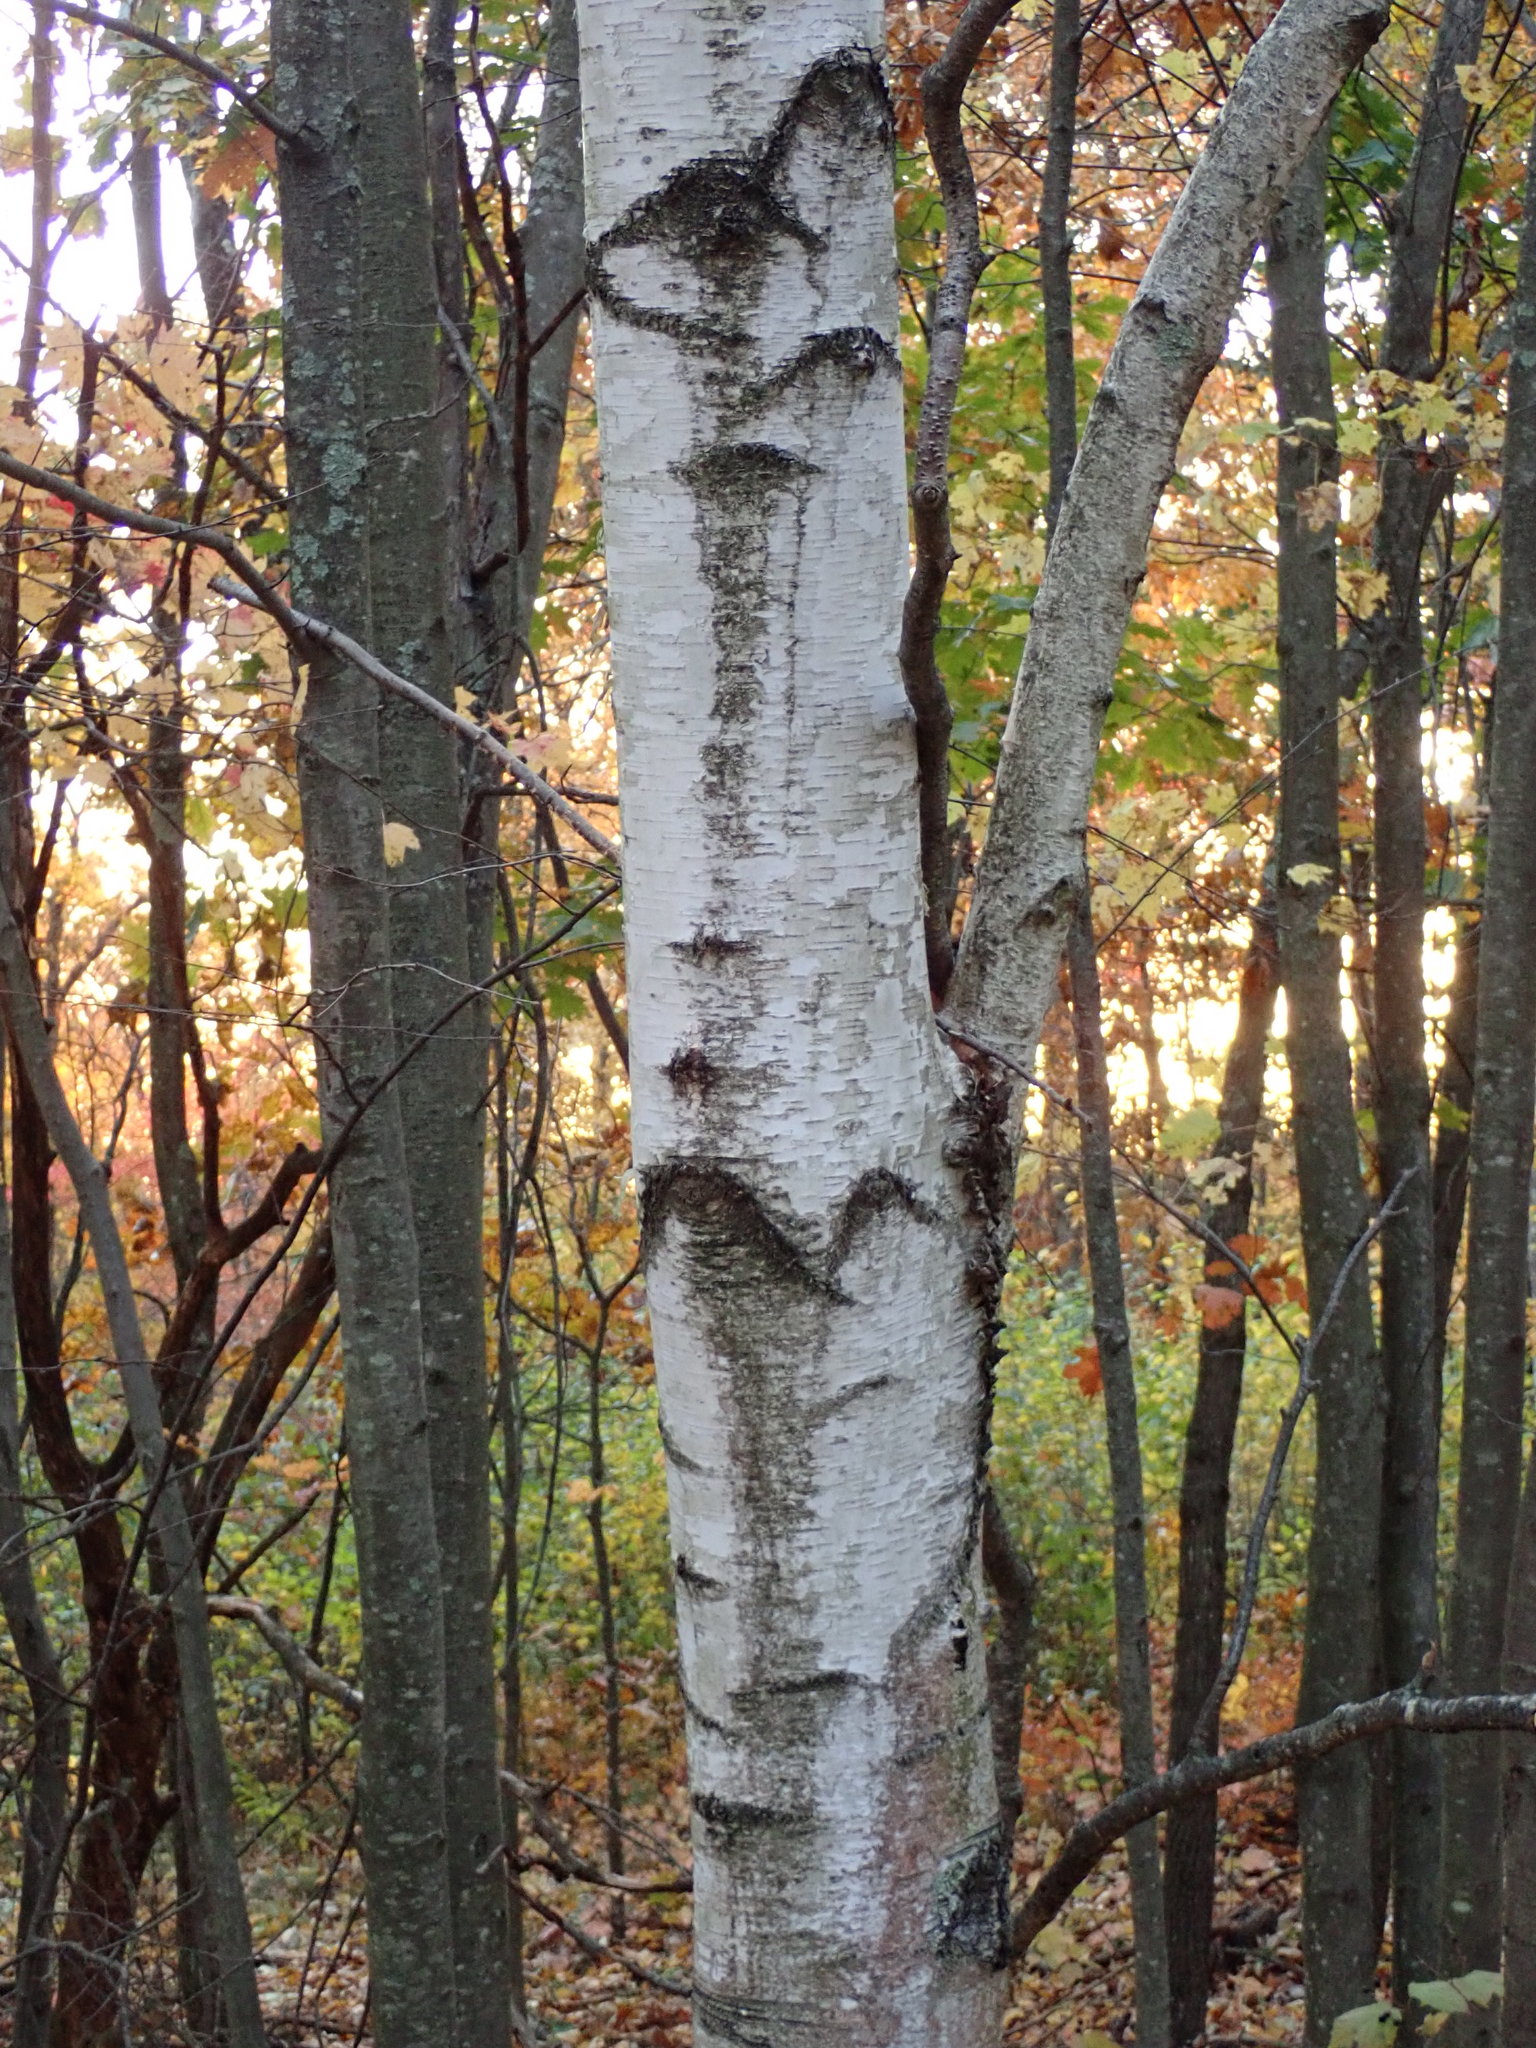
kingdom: Plantae
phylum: Tracheophyta
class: Magnoliopsida
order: Fagales
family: Betulaceae
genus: Betula
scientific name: Betula populifolia
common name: Fire birch
